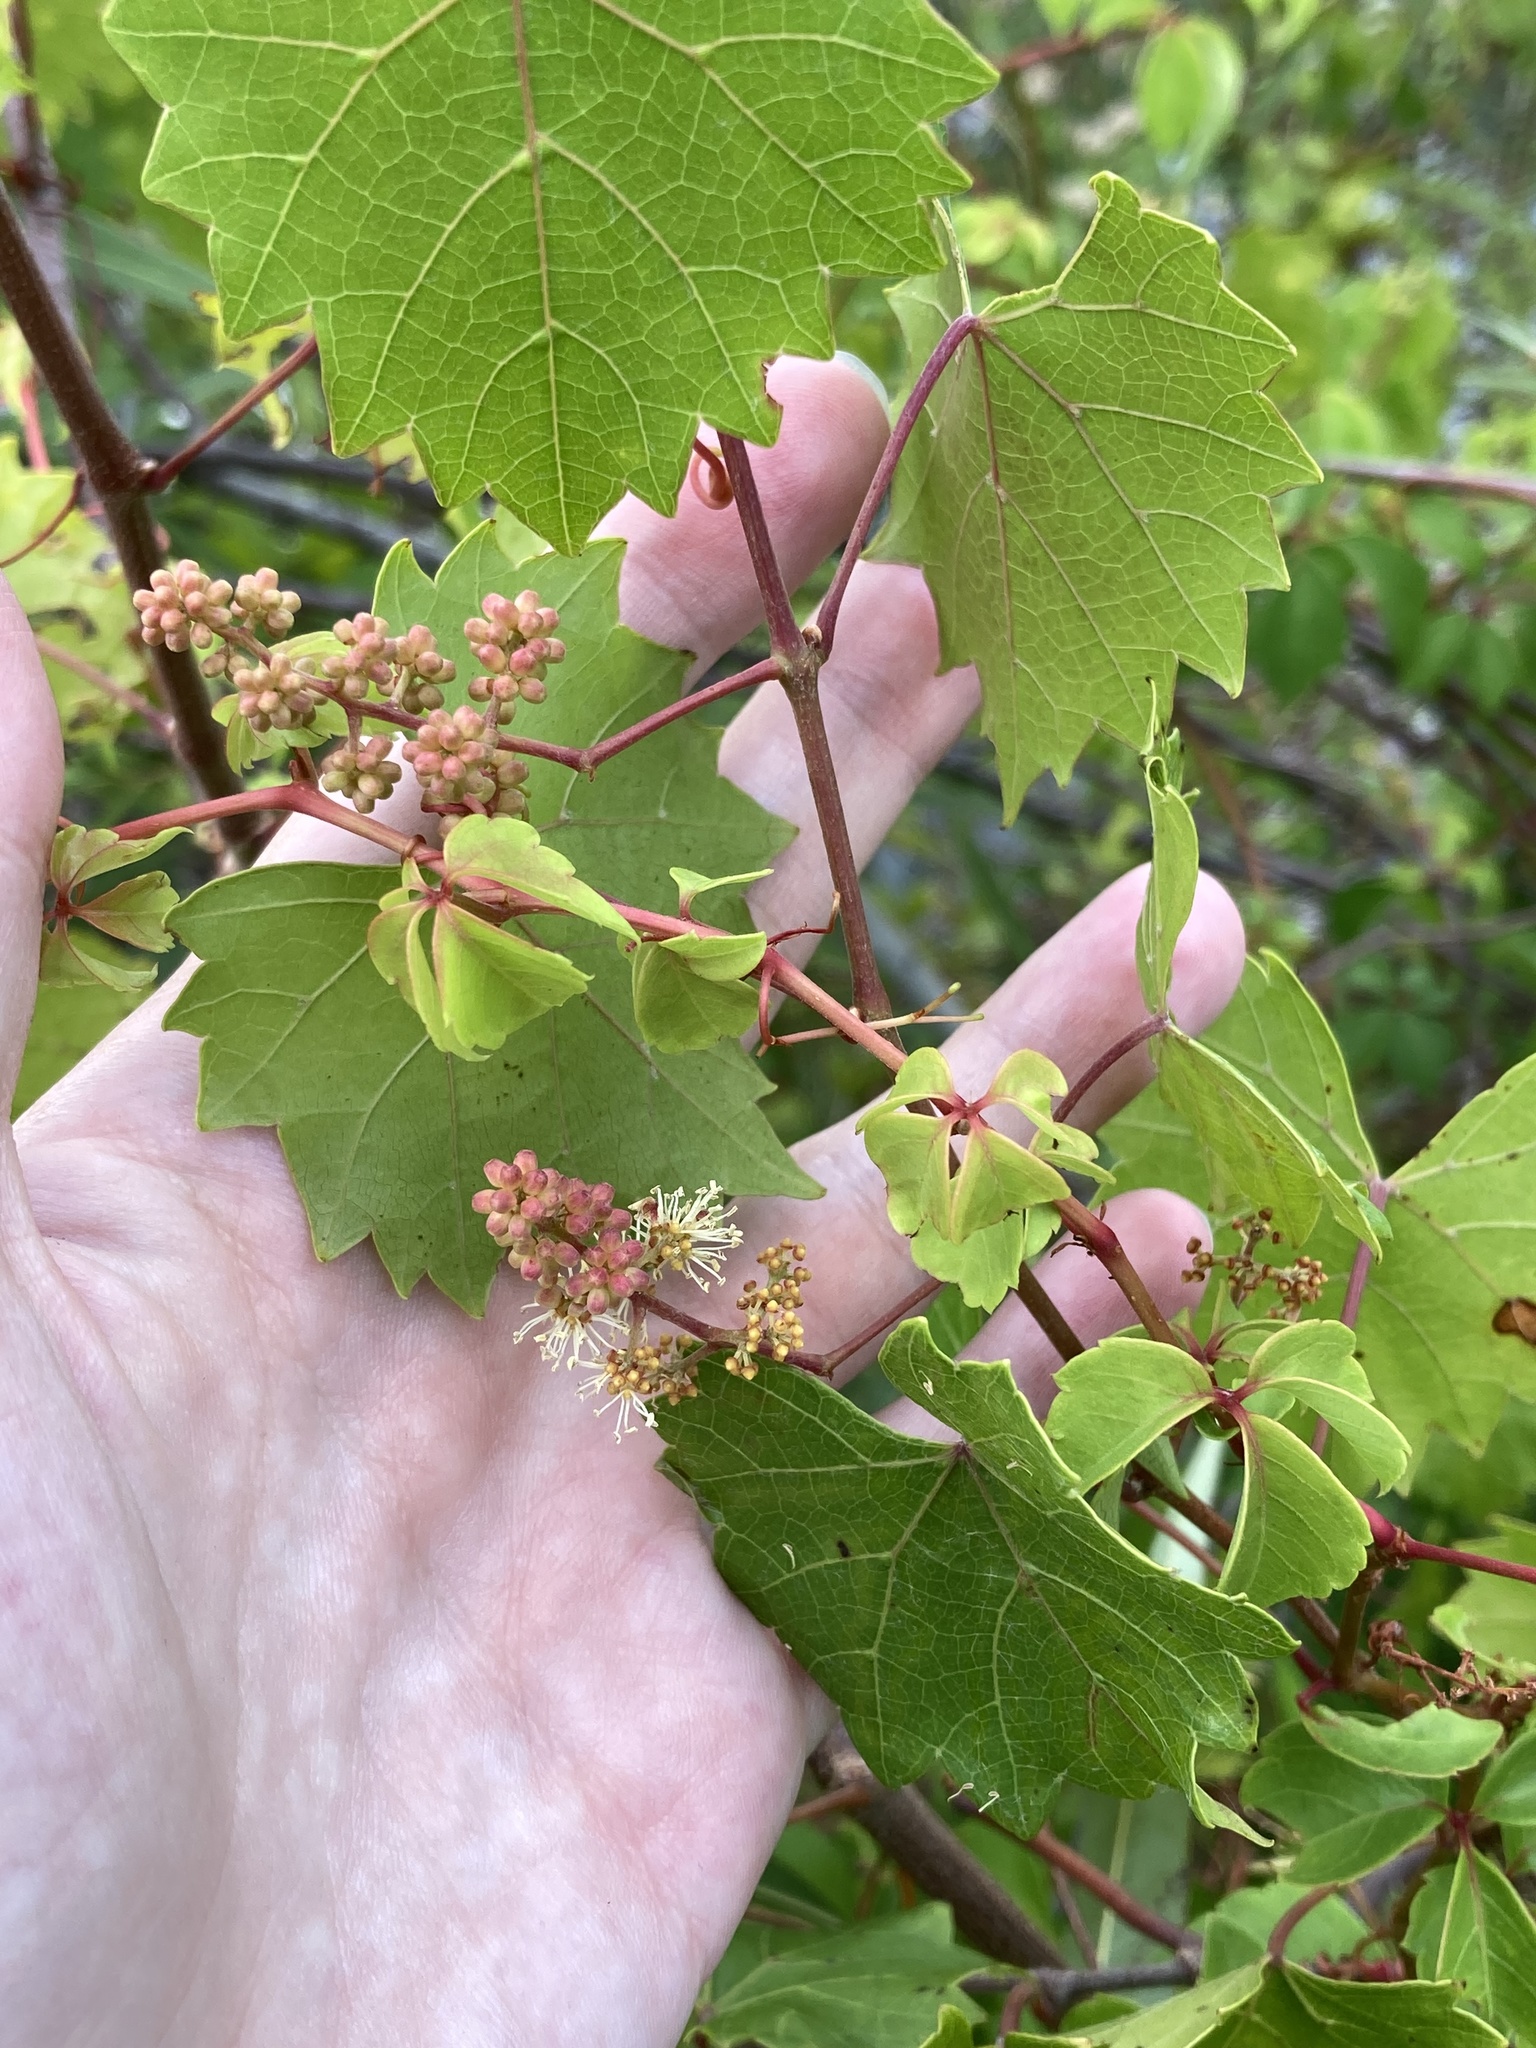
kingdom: Plantae
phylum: Tracheophyta
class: Magnoliopsida
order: Vitales
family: Vitaceae
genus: Vitis
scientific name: Vitis rotundifolia
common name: Muscadine grape
